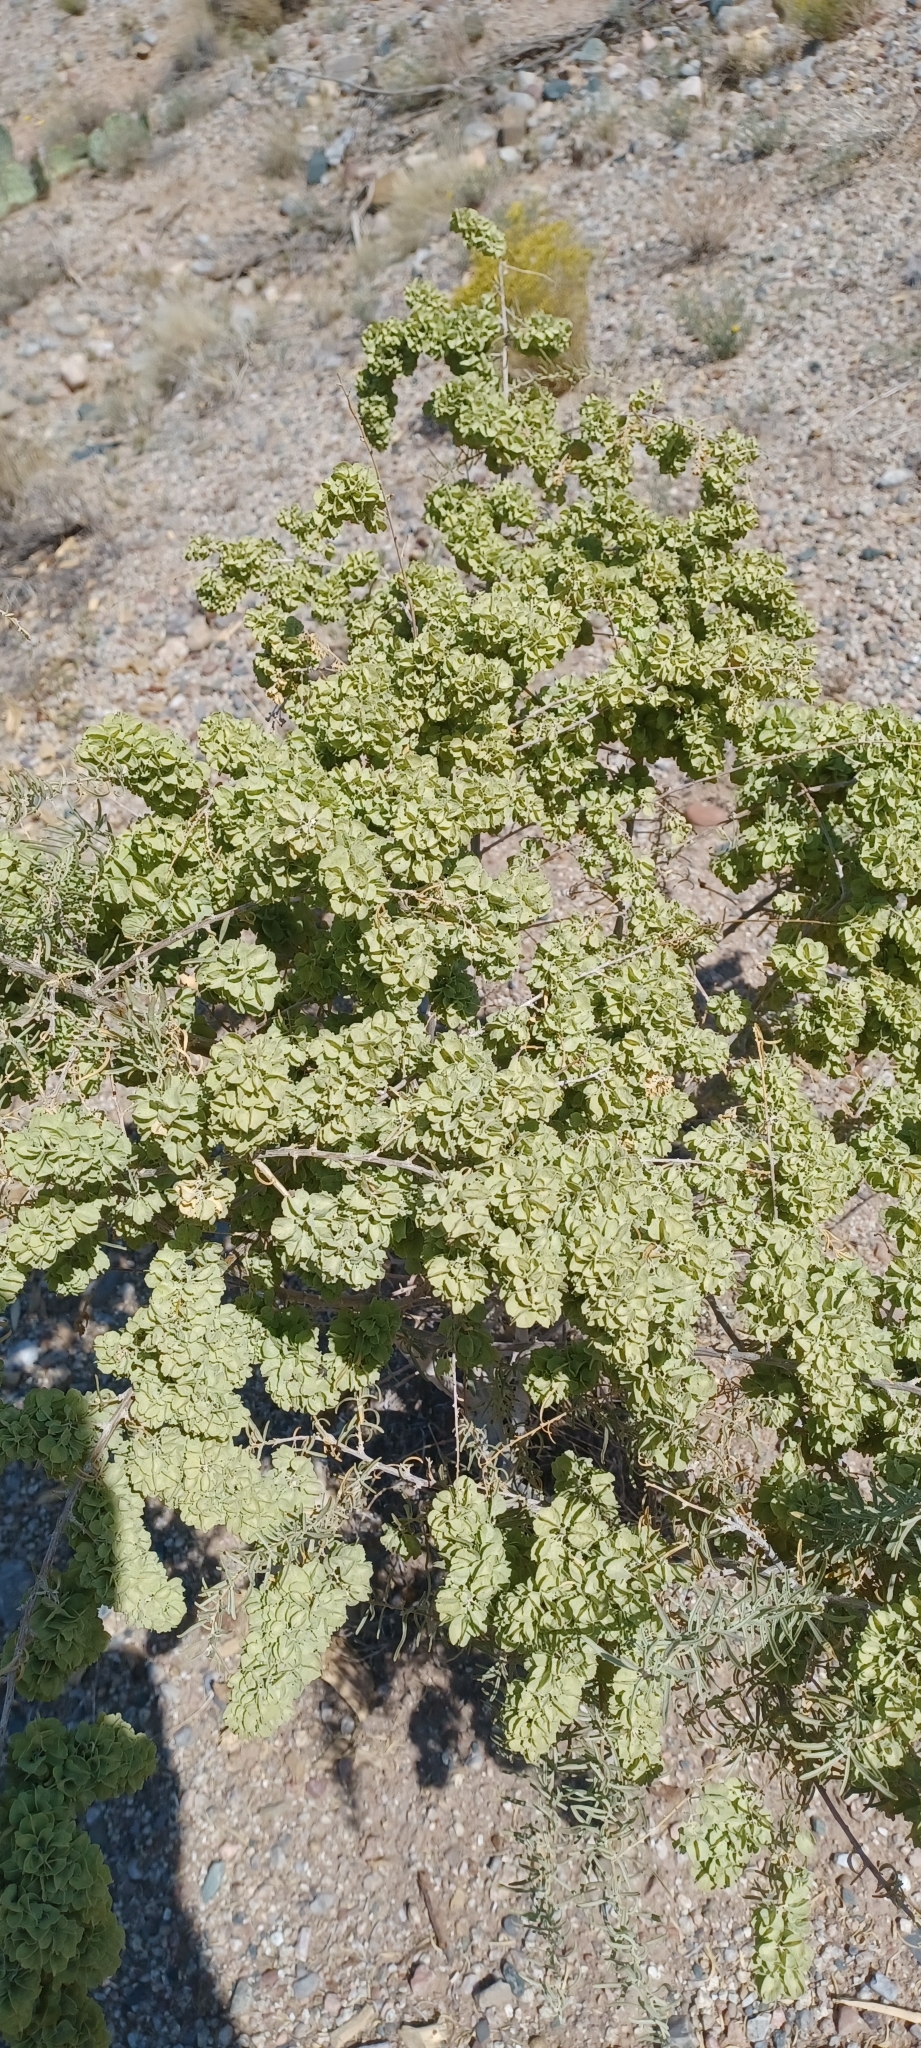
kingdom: Plantae
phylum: Tracheophyta
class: Magnoliopsida
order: Caryophyllales
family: Amaranthaceae
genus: Atriplex
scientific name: Atriplex canescens
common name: Four-wing saltbush
